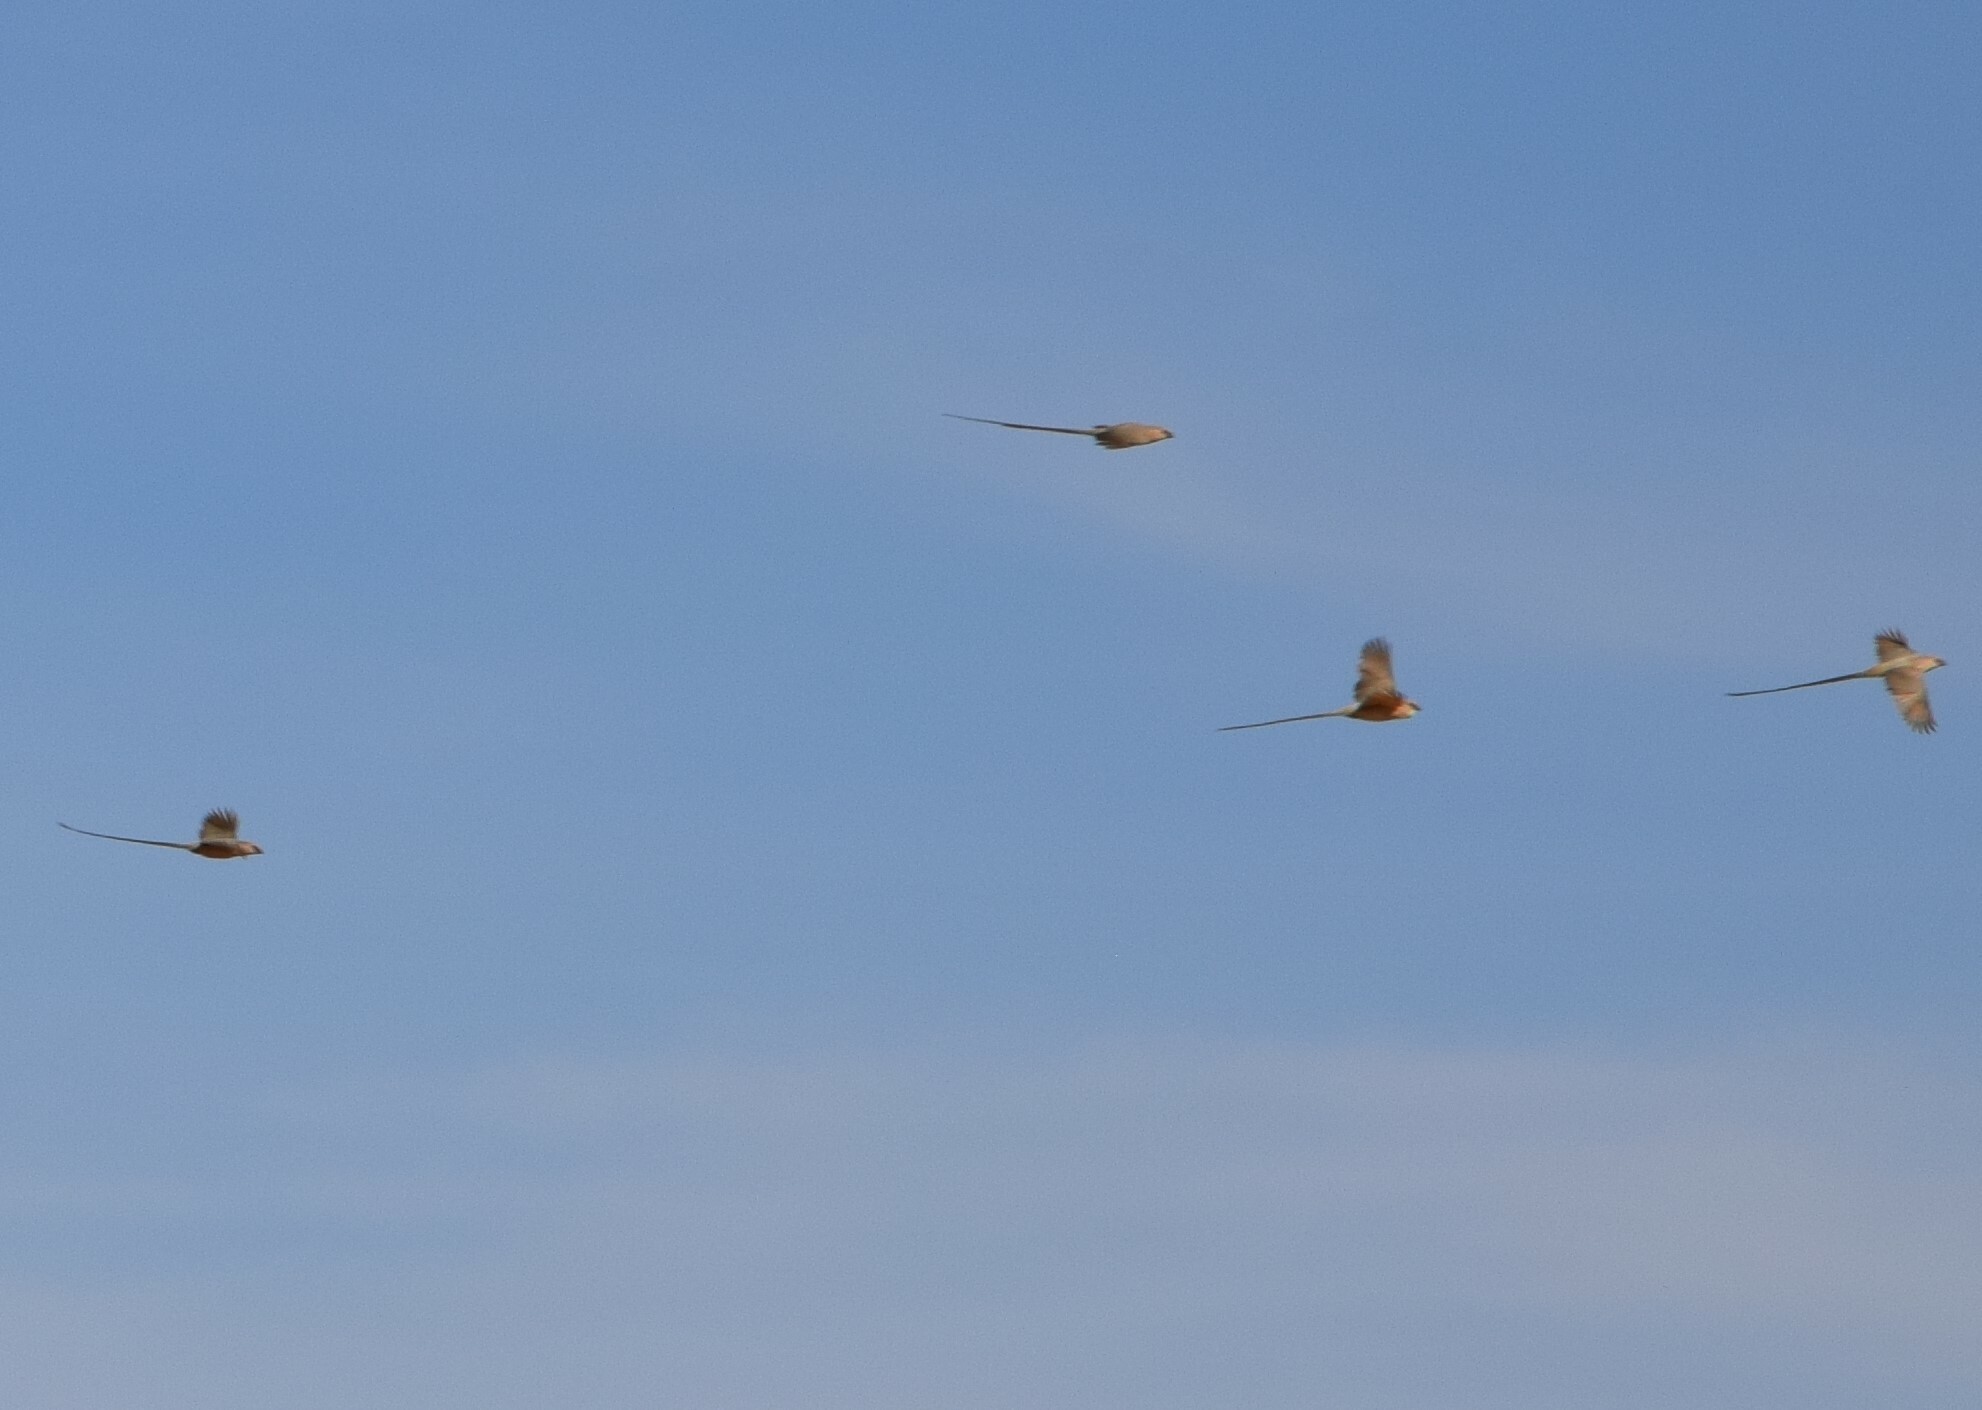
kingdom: Animalia
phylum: Chordata
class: Aves
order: Coliiformes
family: Coliidae
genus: Urocolius
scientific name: Urocolius macrourus
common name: Blue-naped mousebird
